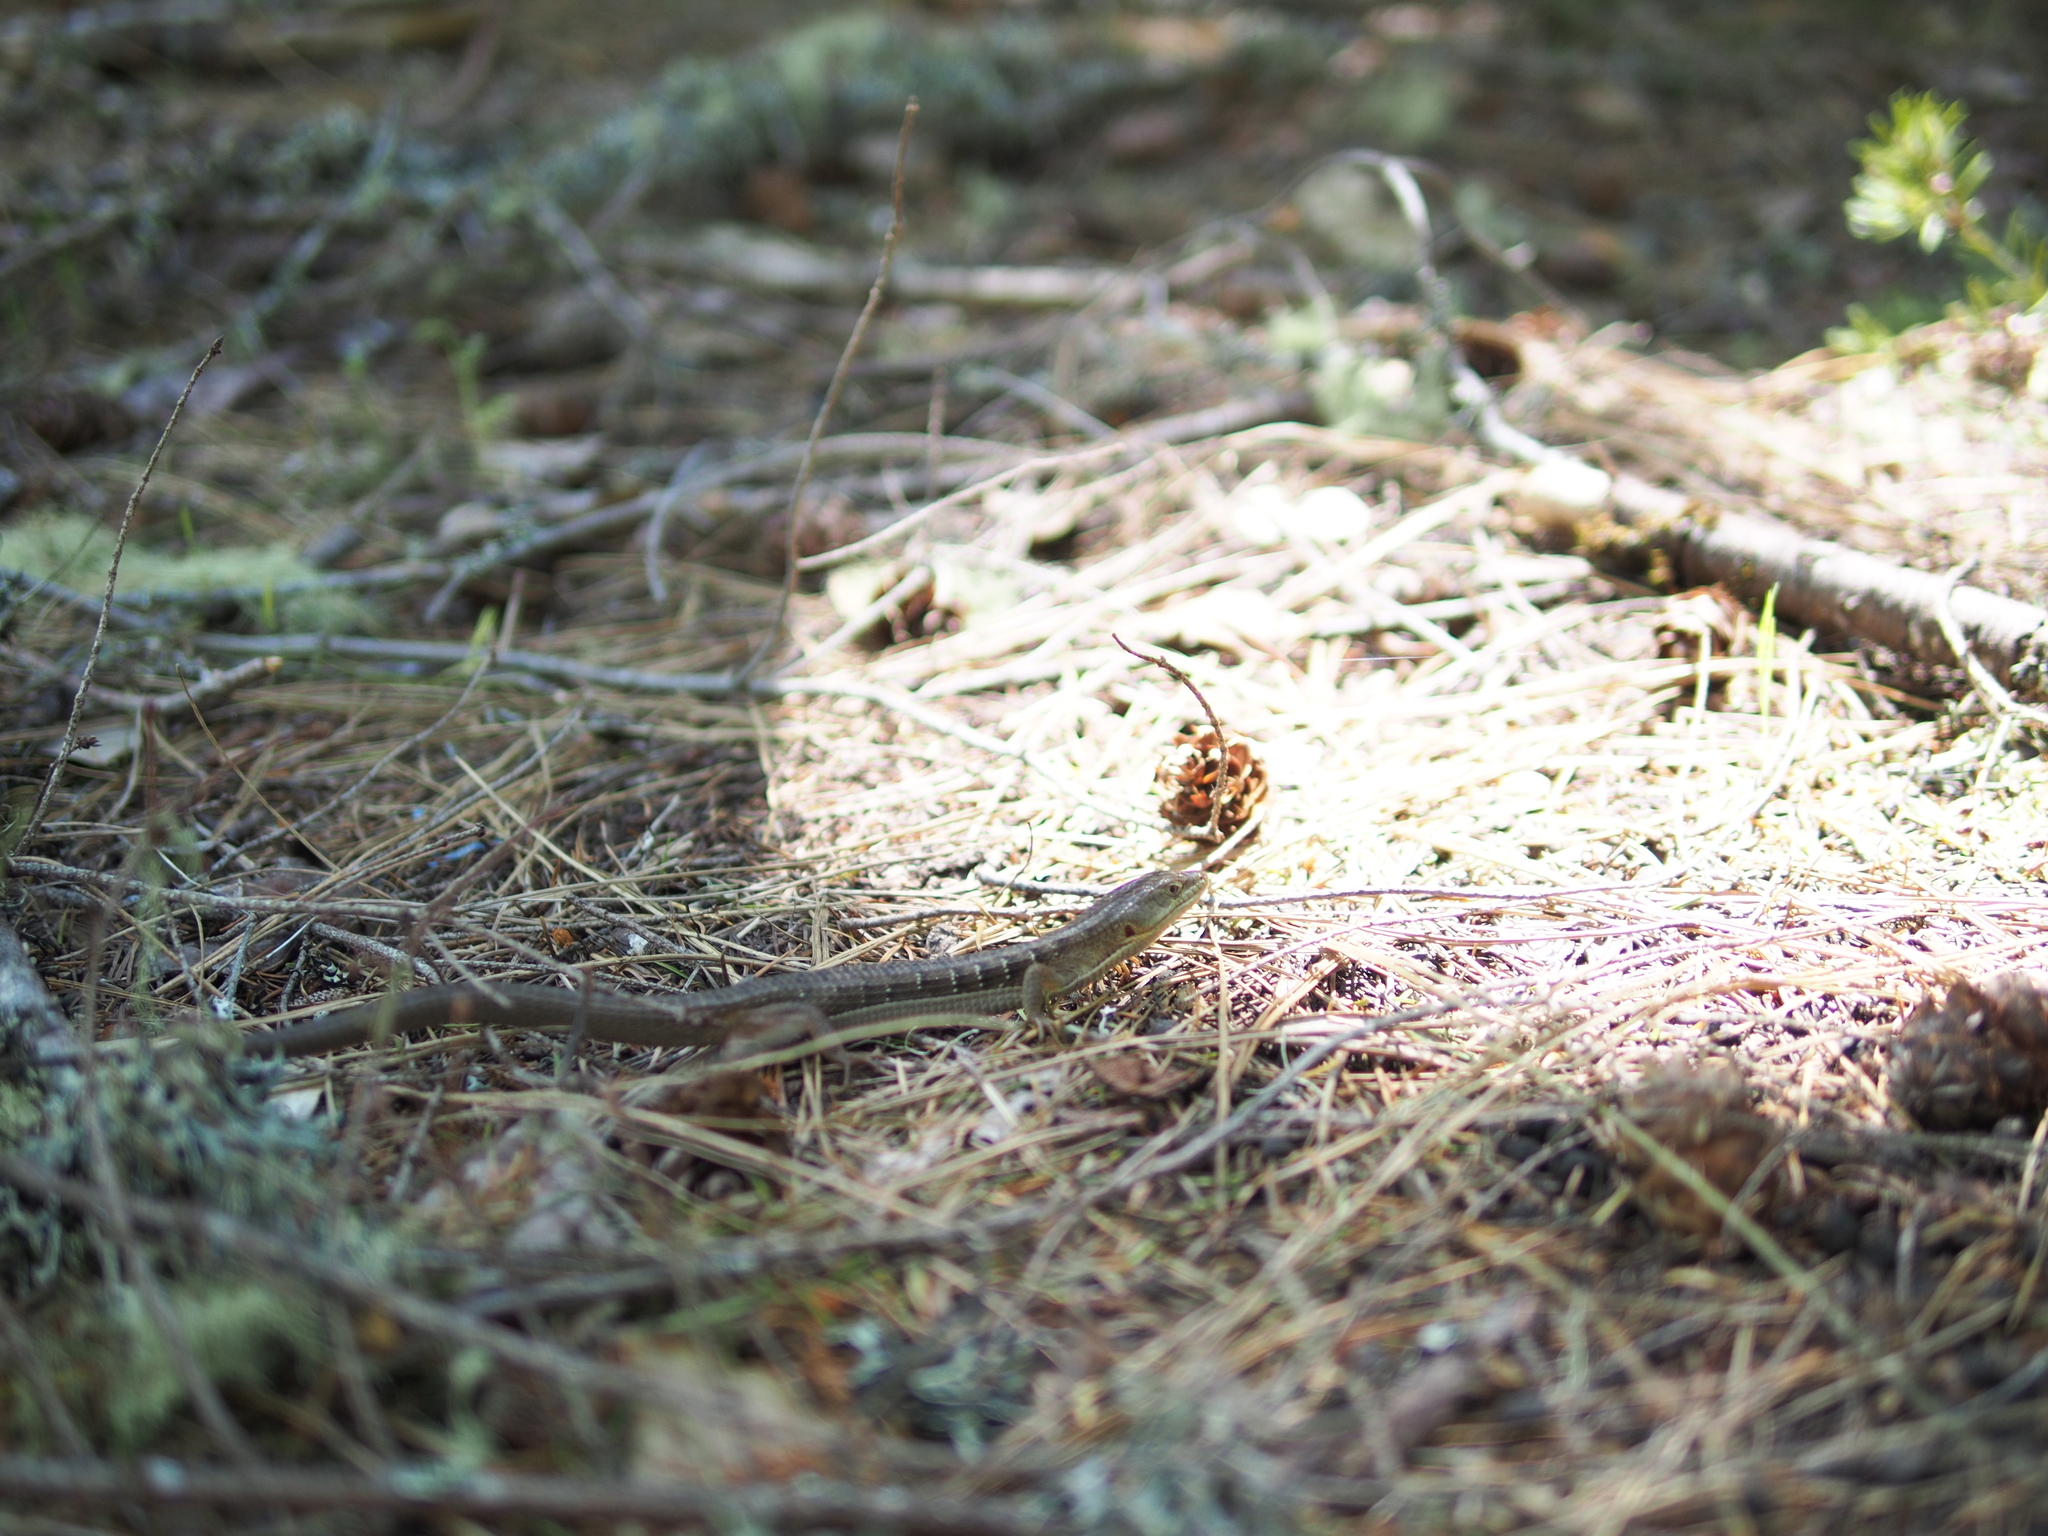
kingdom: Animalia
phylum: Chordata
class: Squamata
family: Anguidae
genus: Elgaria
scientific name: Elgaria multicarinata
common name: Southern alligator lizard
